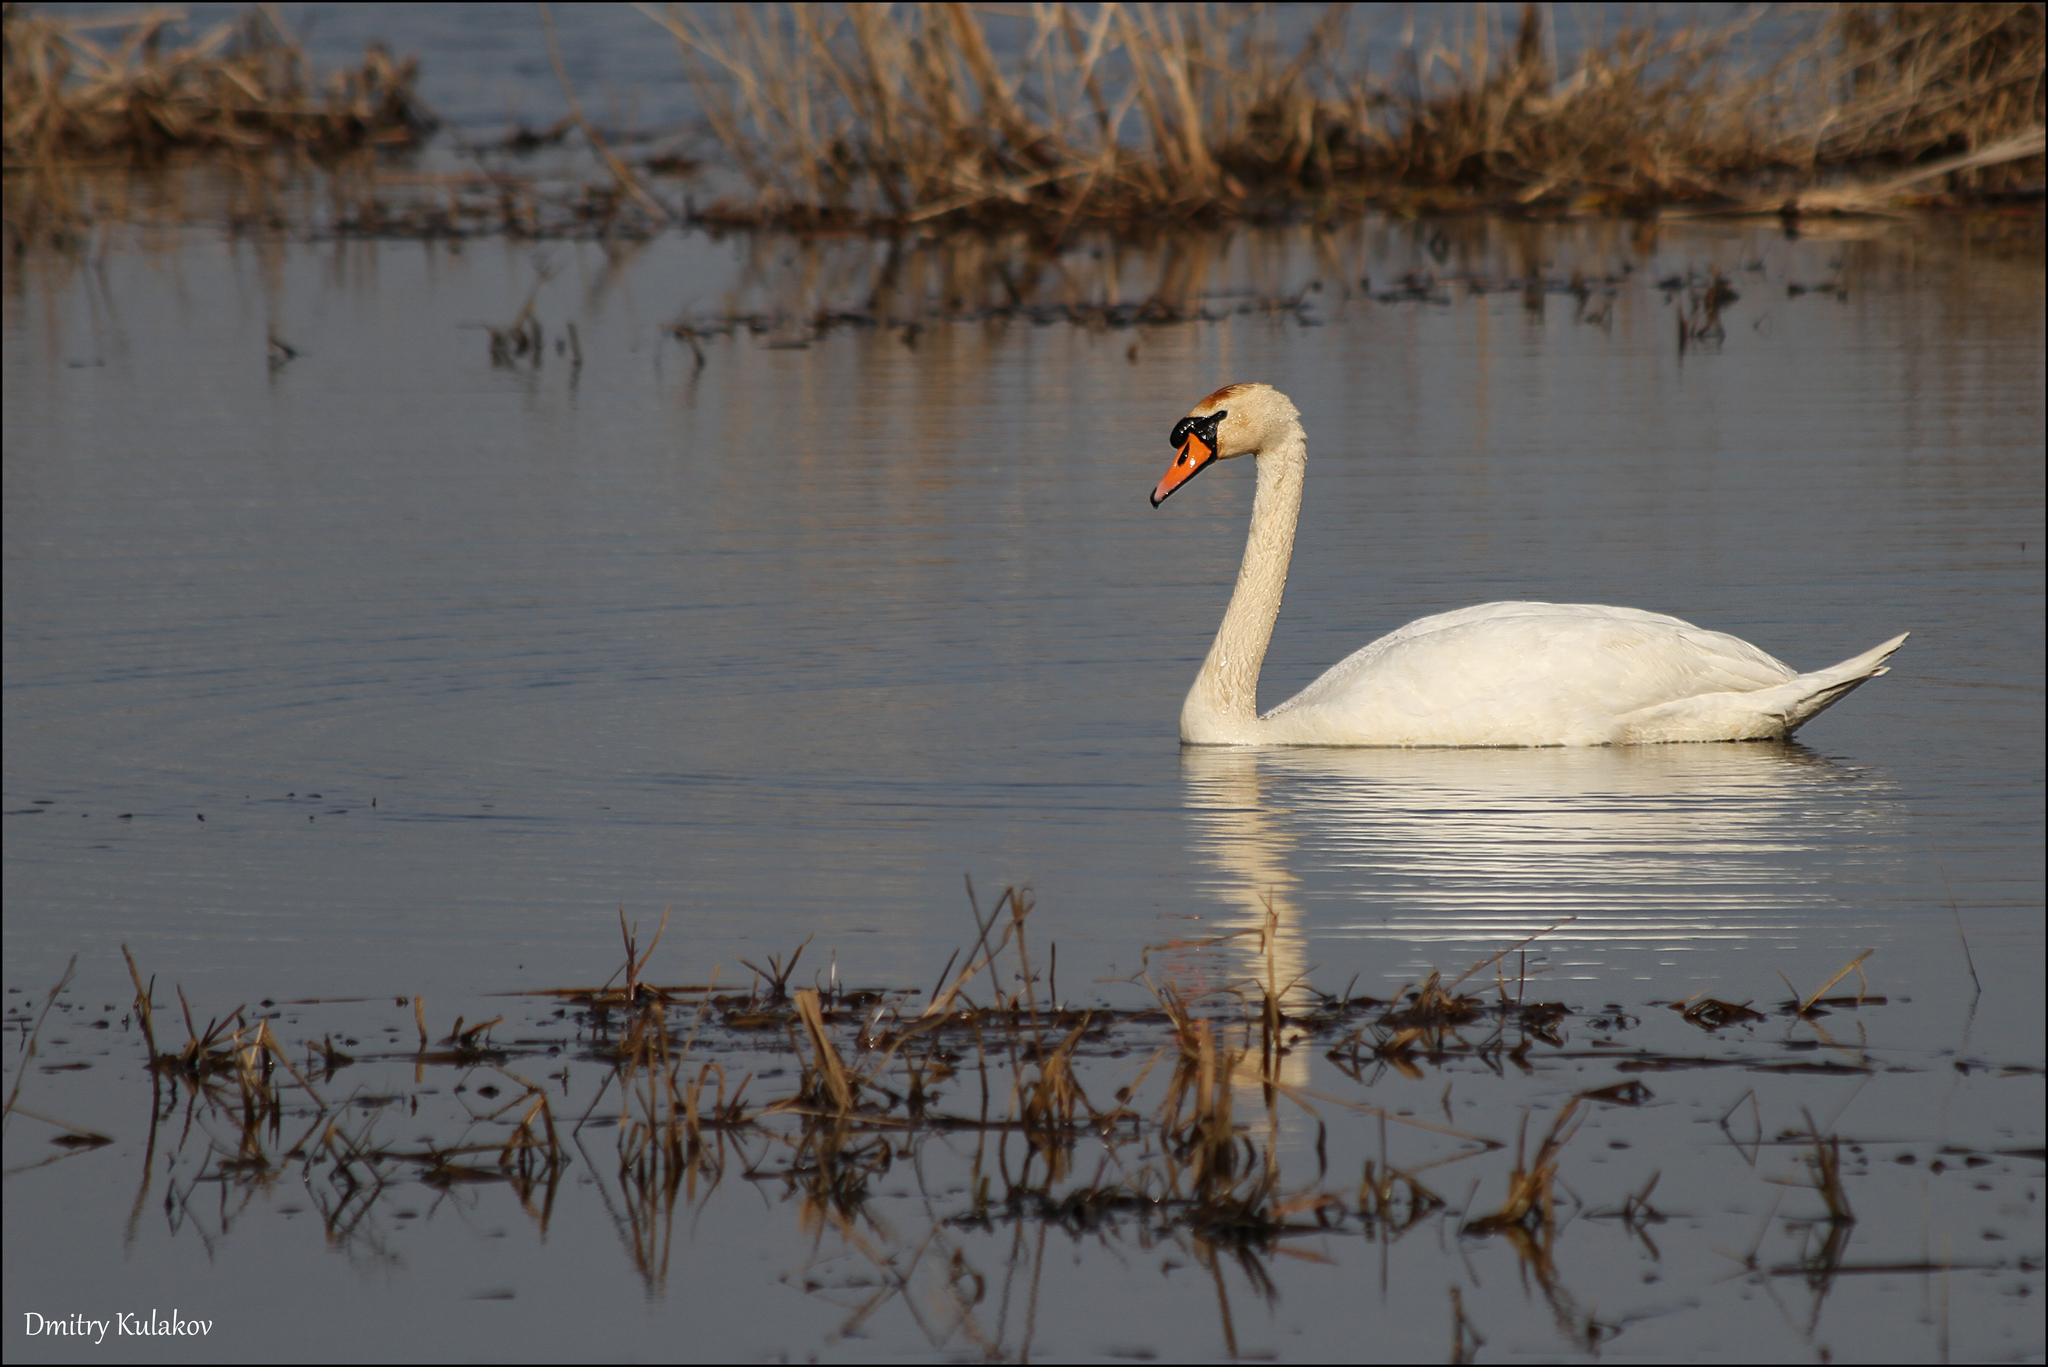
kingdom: Animalia
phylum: Chordata
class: Aves
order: Anseriformes
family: Anatidae
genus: Cygnus
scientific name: Cygnus olor
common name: Mute swan
